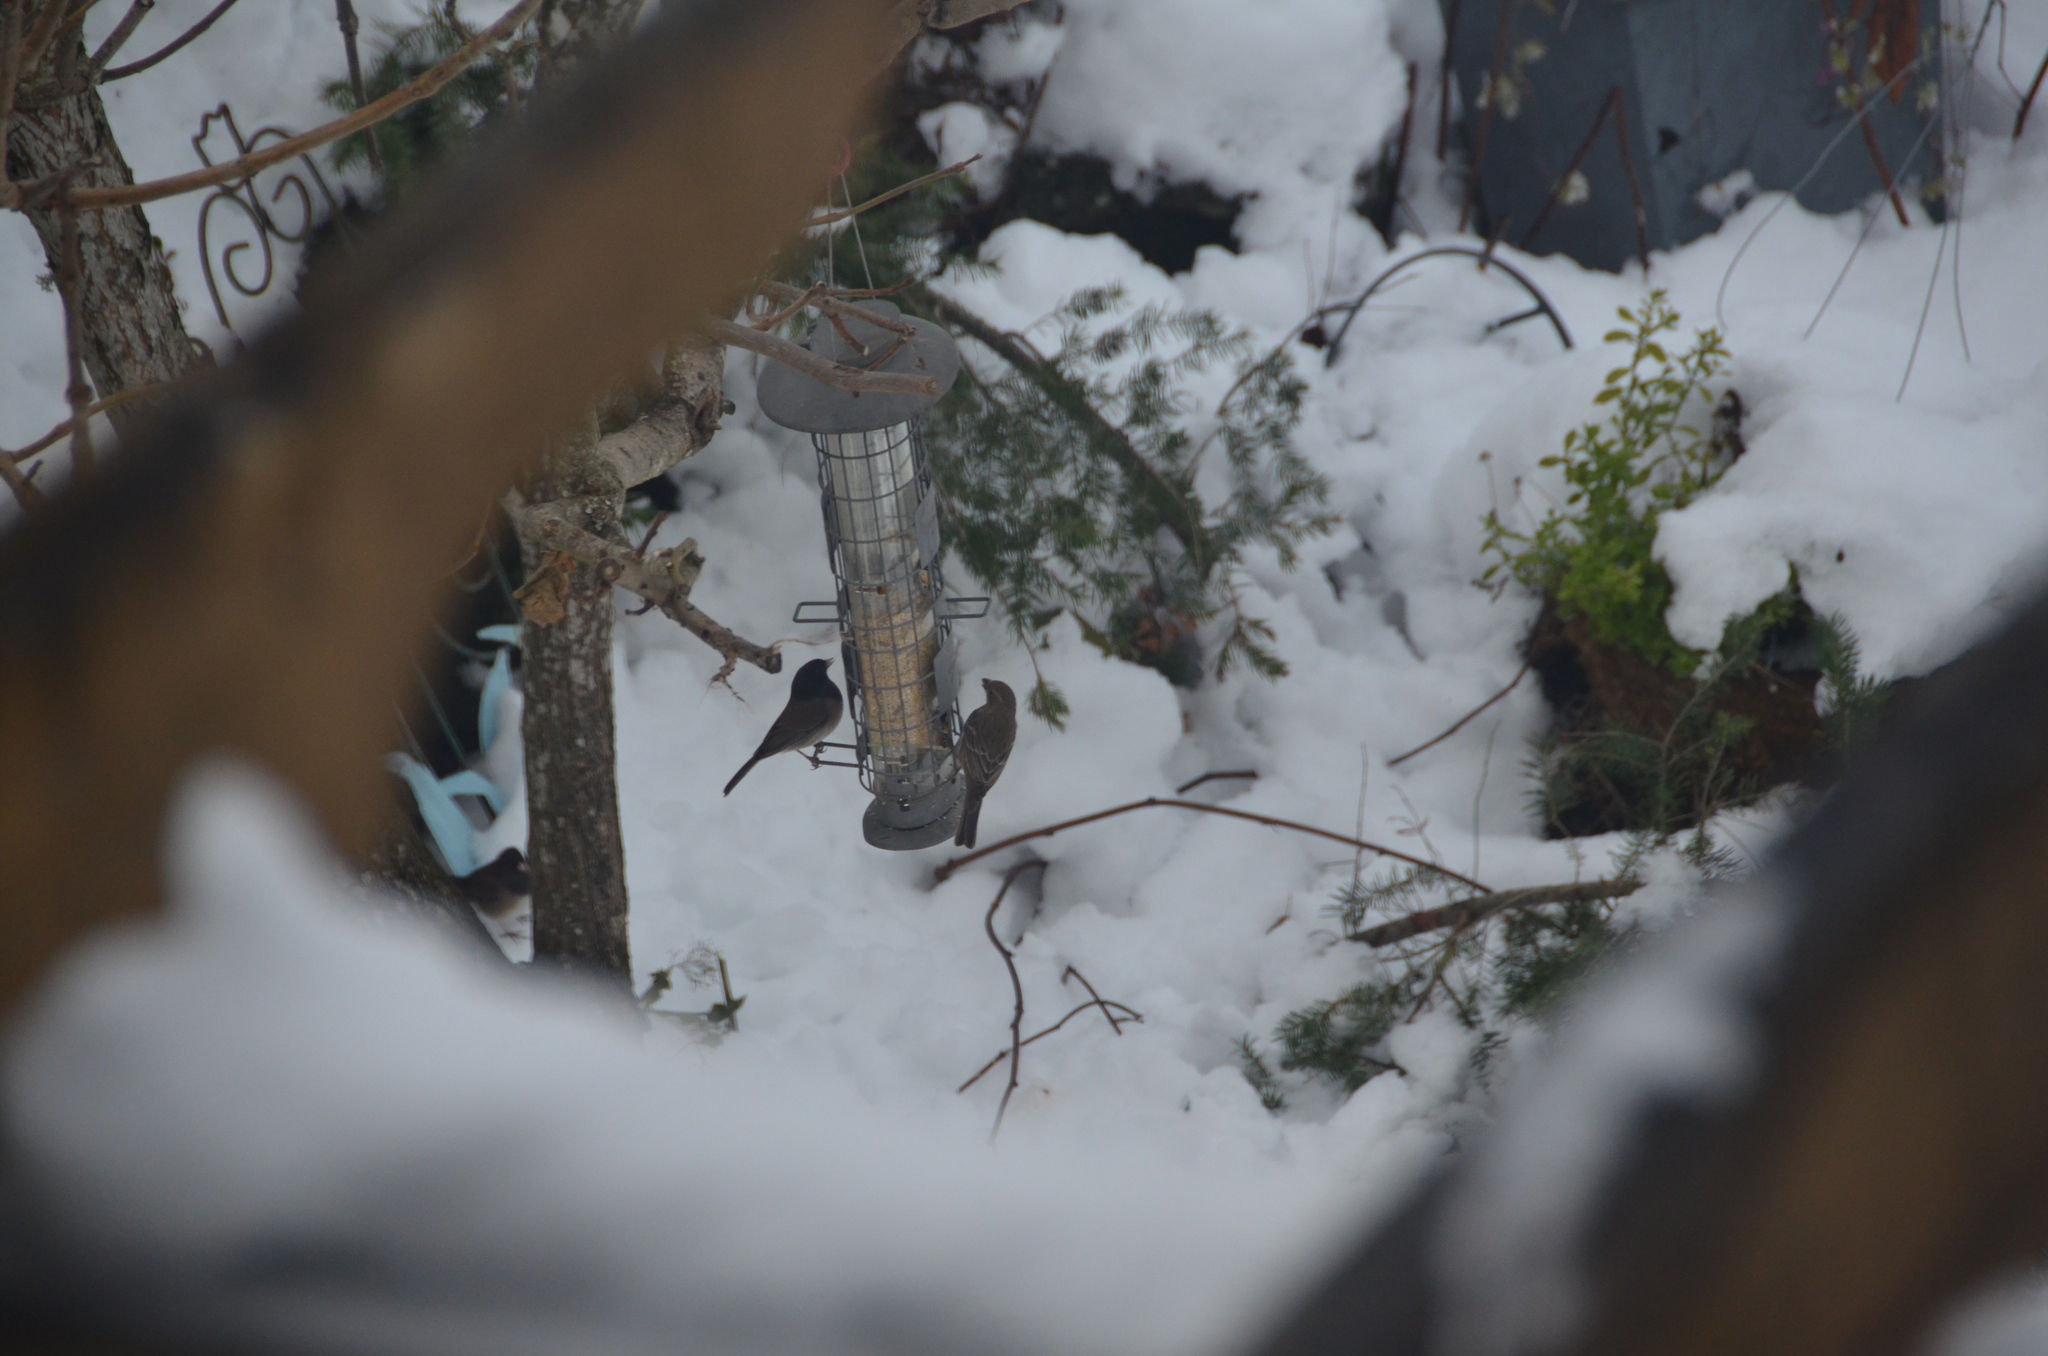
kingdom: Animalia
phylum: Chordata
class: Aves
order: Passeriformes
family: Fringillidae
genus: Haemorhous
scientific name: Haemorhous mexicanus
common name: House finch
